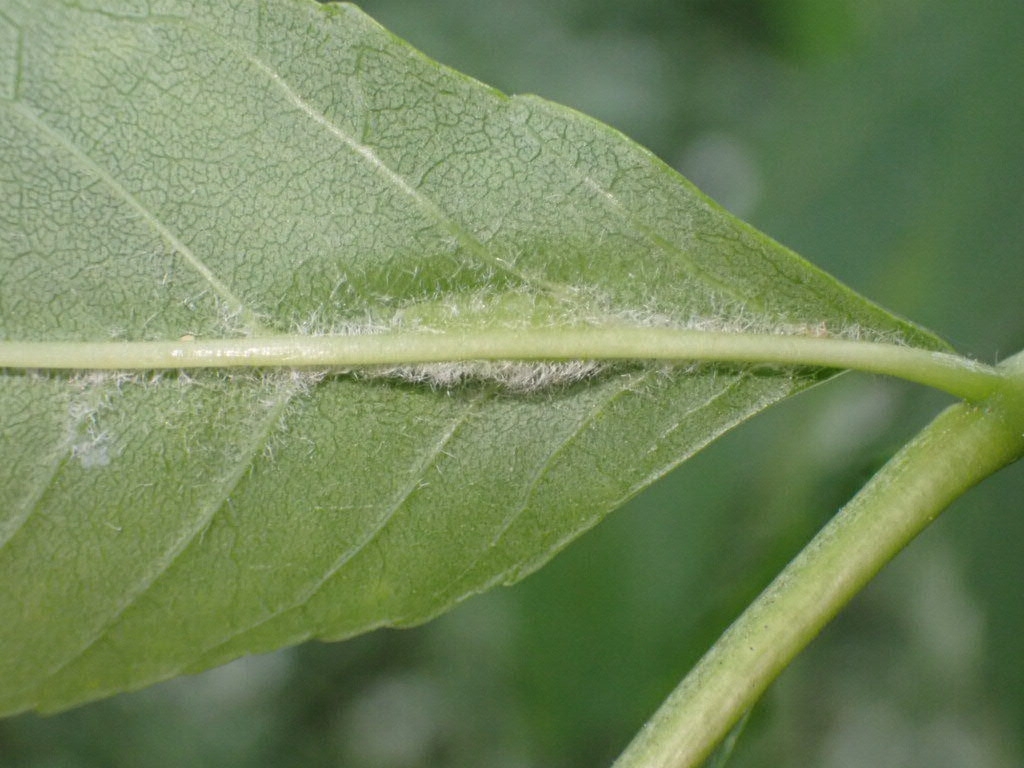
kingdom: Animalia
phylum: Arthropoda
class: Insecta
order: Diptera
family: Cecidomyiidae
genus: Dasineura
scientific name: Dasineura fraxini
